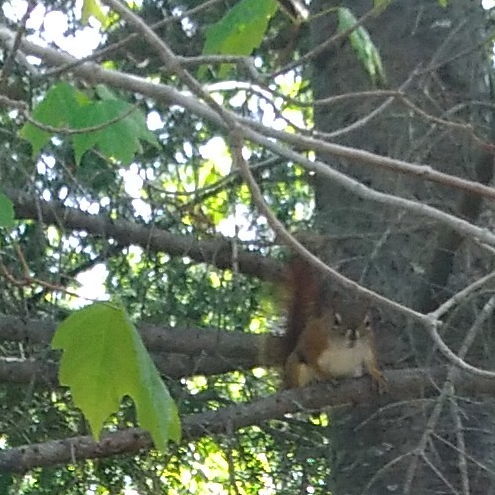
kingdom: Animalia
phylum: Chordata
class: Mammalia
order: Rodentia
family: Sciuridae
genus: Tamiasciurus
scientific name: Tamiasciurus hudsonicus
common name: Red squirrel
